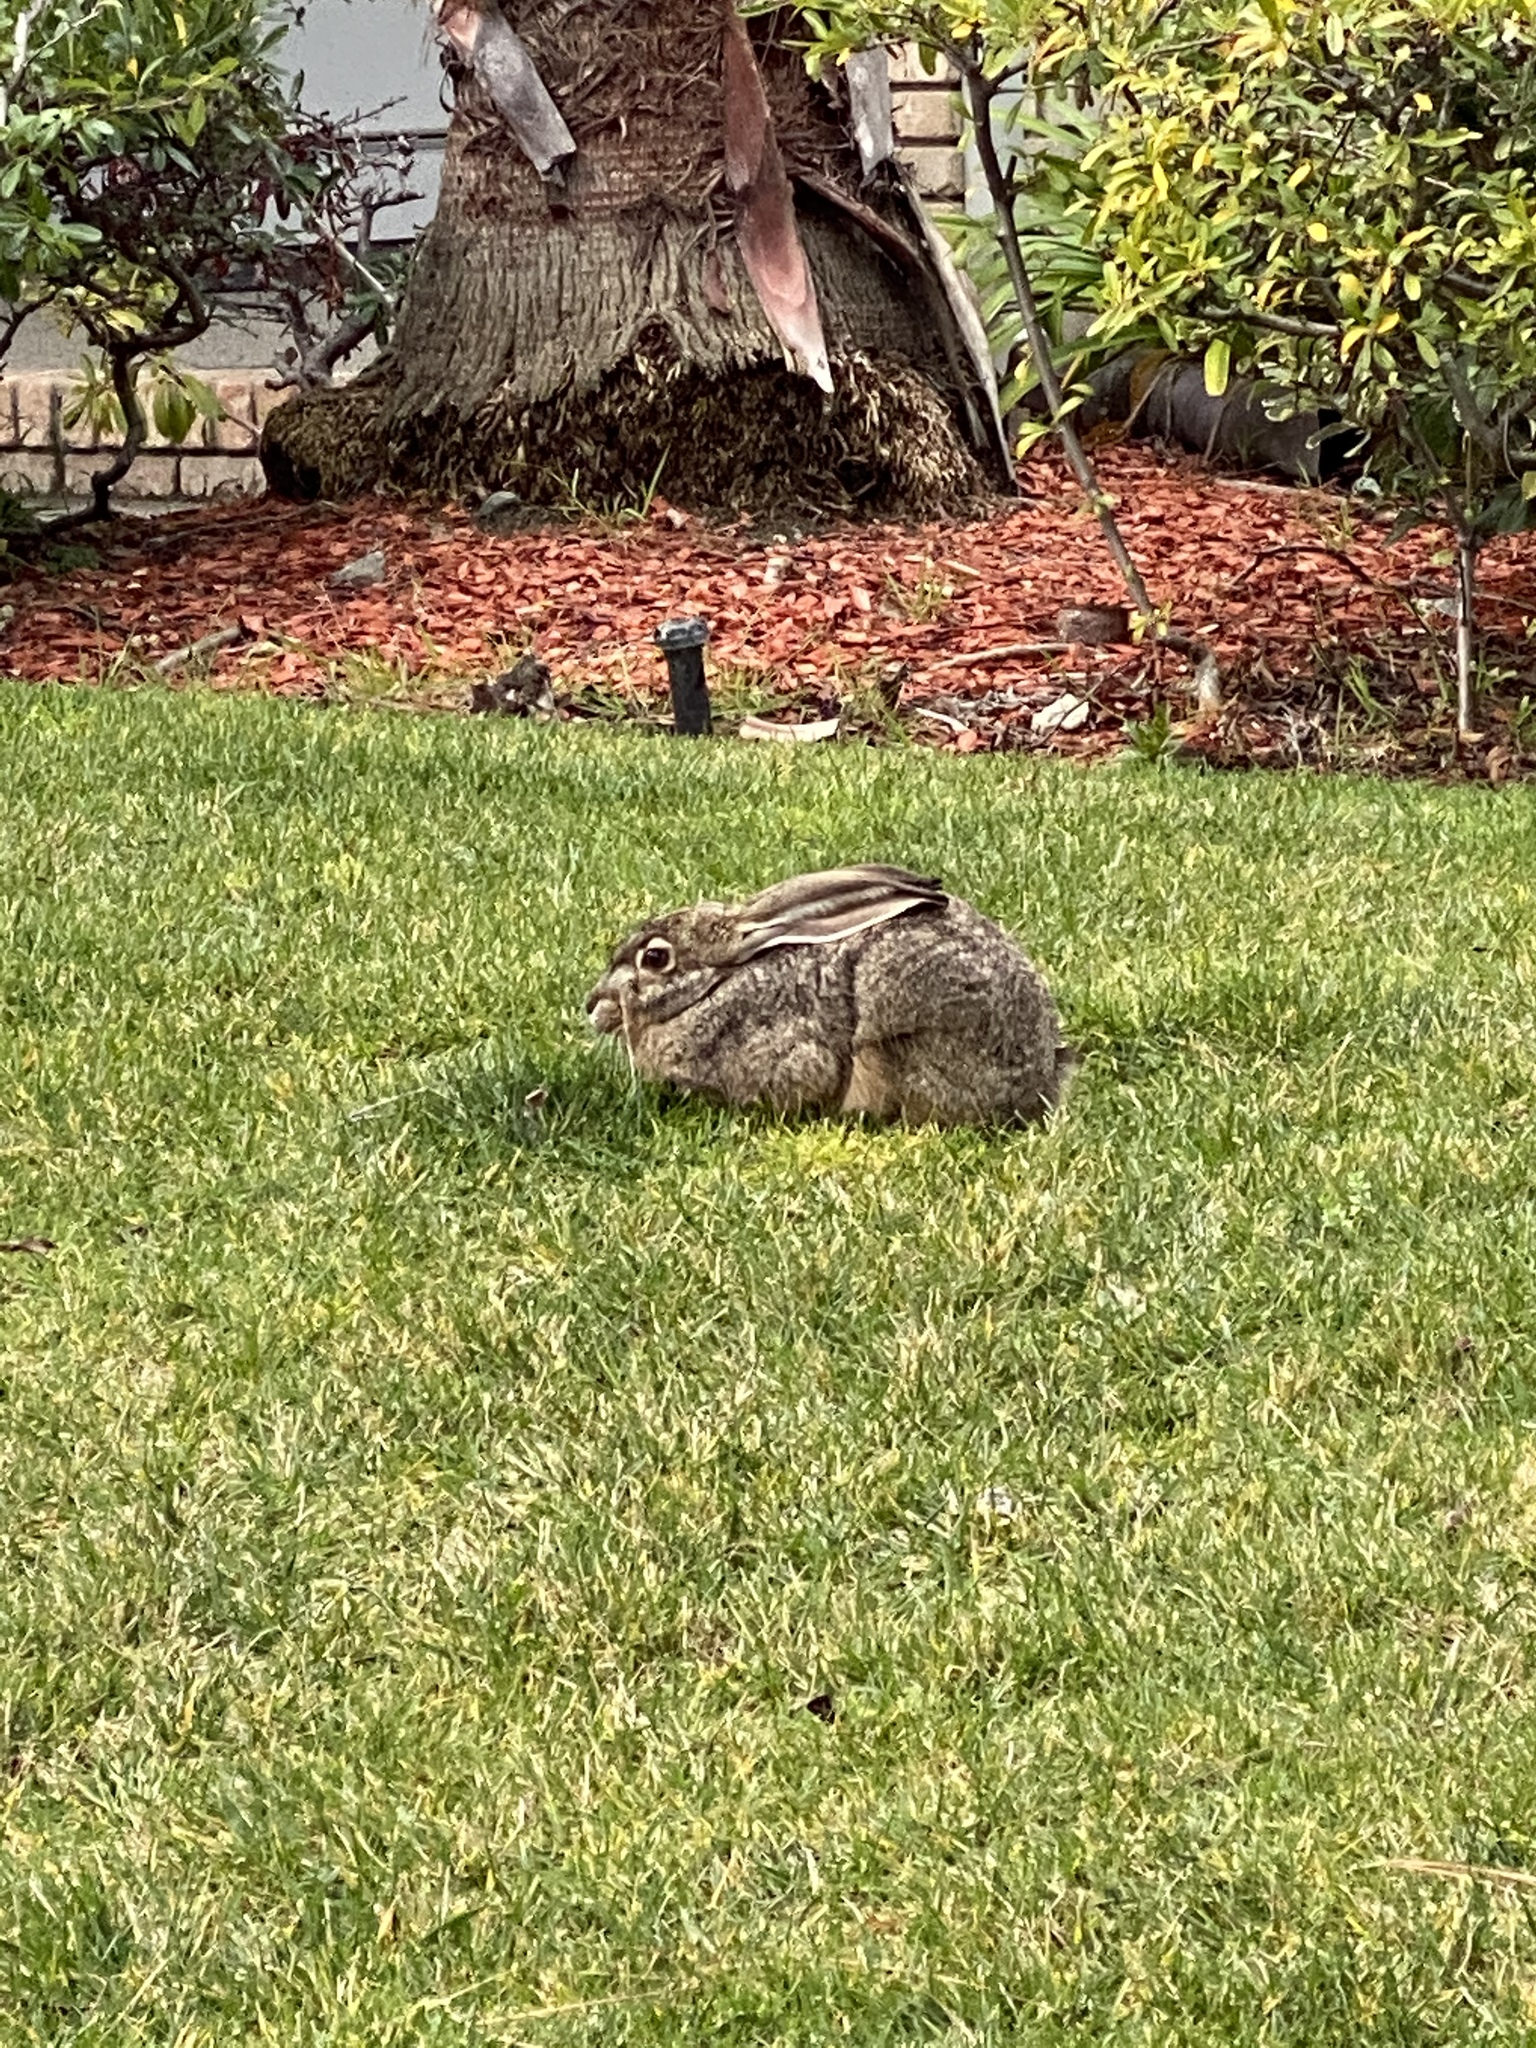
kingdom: Animalia
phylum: Chordata
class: Mammalia
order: Lagomorpha
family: Leporidae
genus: Lepus
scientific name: Lepus californicus
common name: Black-tailed jackrabbit
